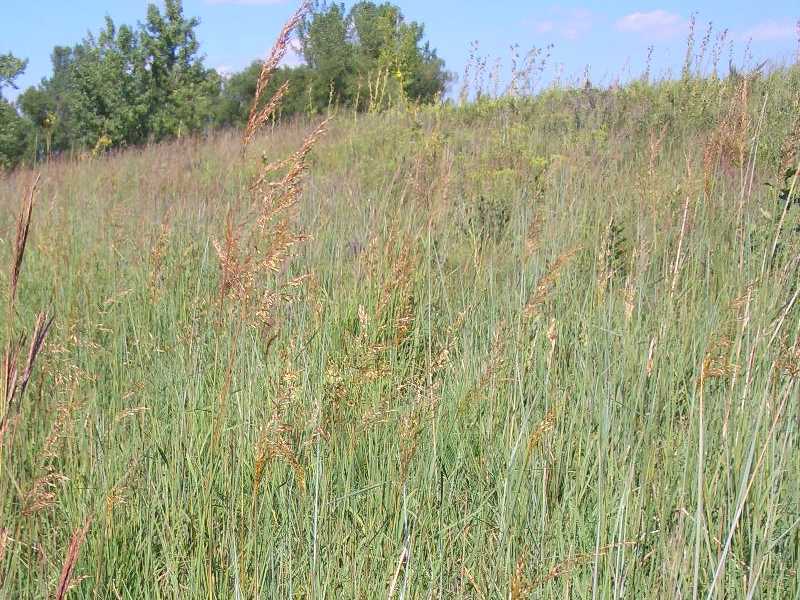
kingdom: Plantae
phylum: Tracheophyta
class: Liliopsida
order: Poales
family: Poaceae
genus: Sorghastrum
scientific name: Sorghastrum nutans
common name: Indian grass
